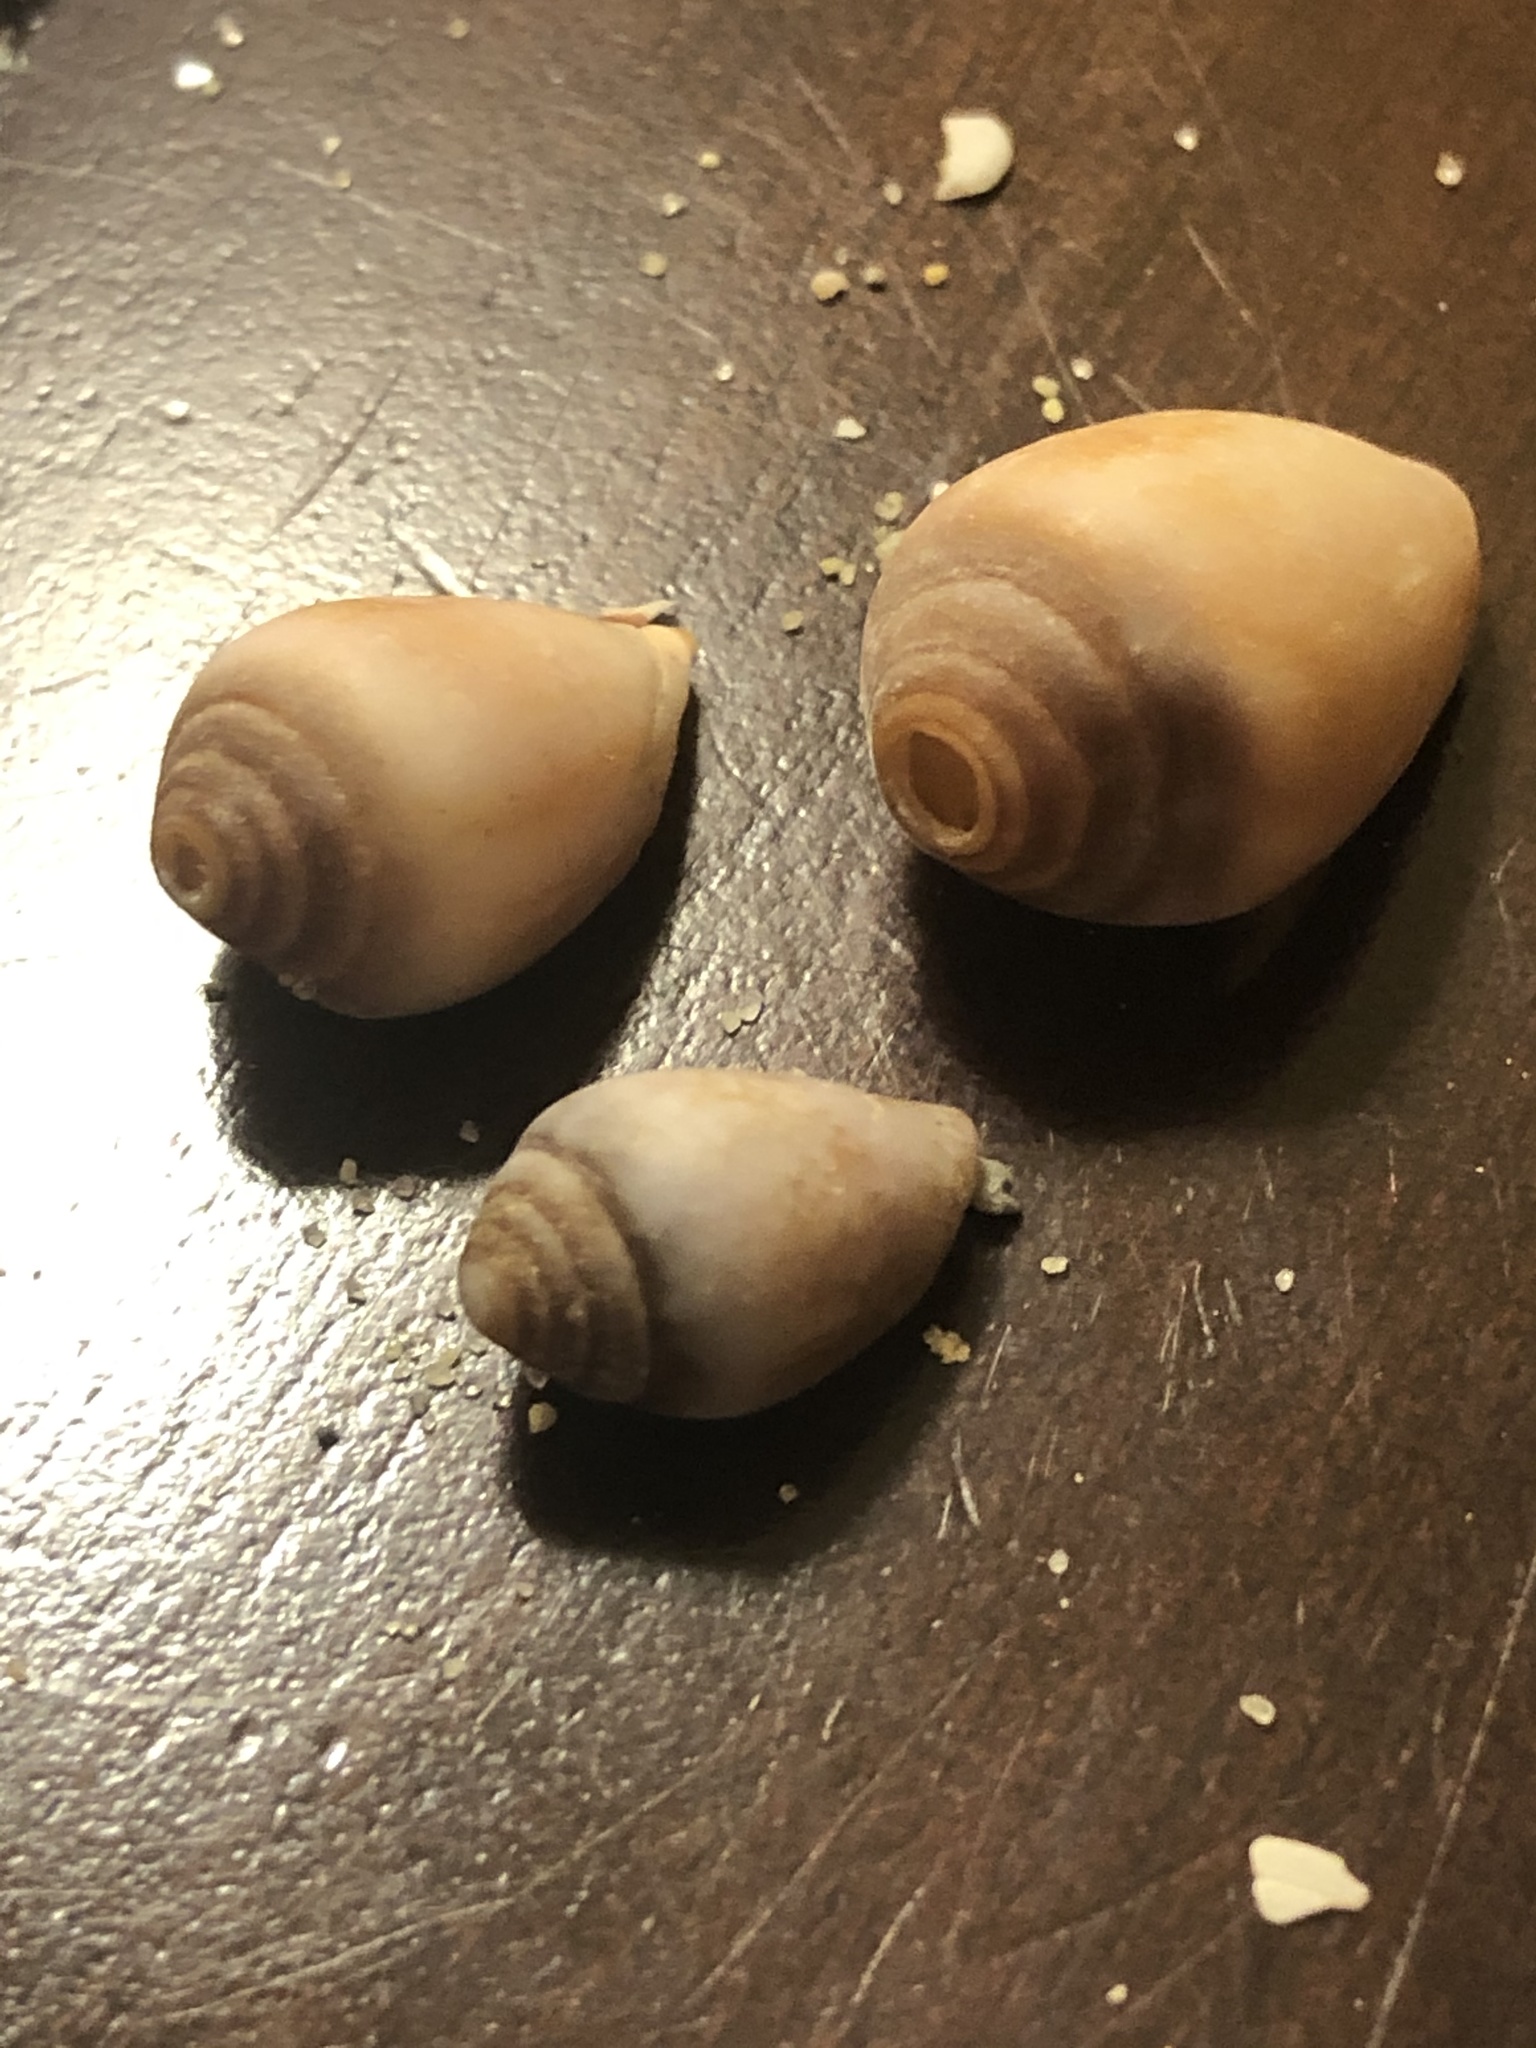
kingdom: Animalia
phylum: Mollusca
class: Gastropoda
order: Neogastropoda
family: Conidae
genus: Californiconus
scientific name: Californiconus californicus
